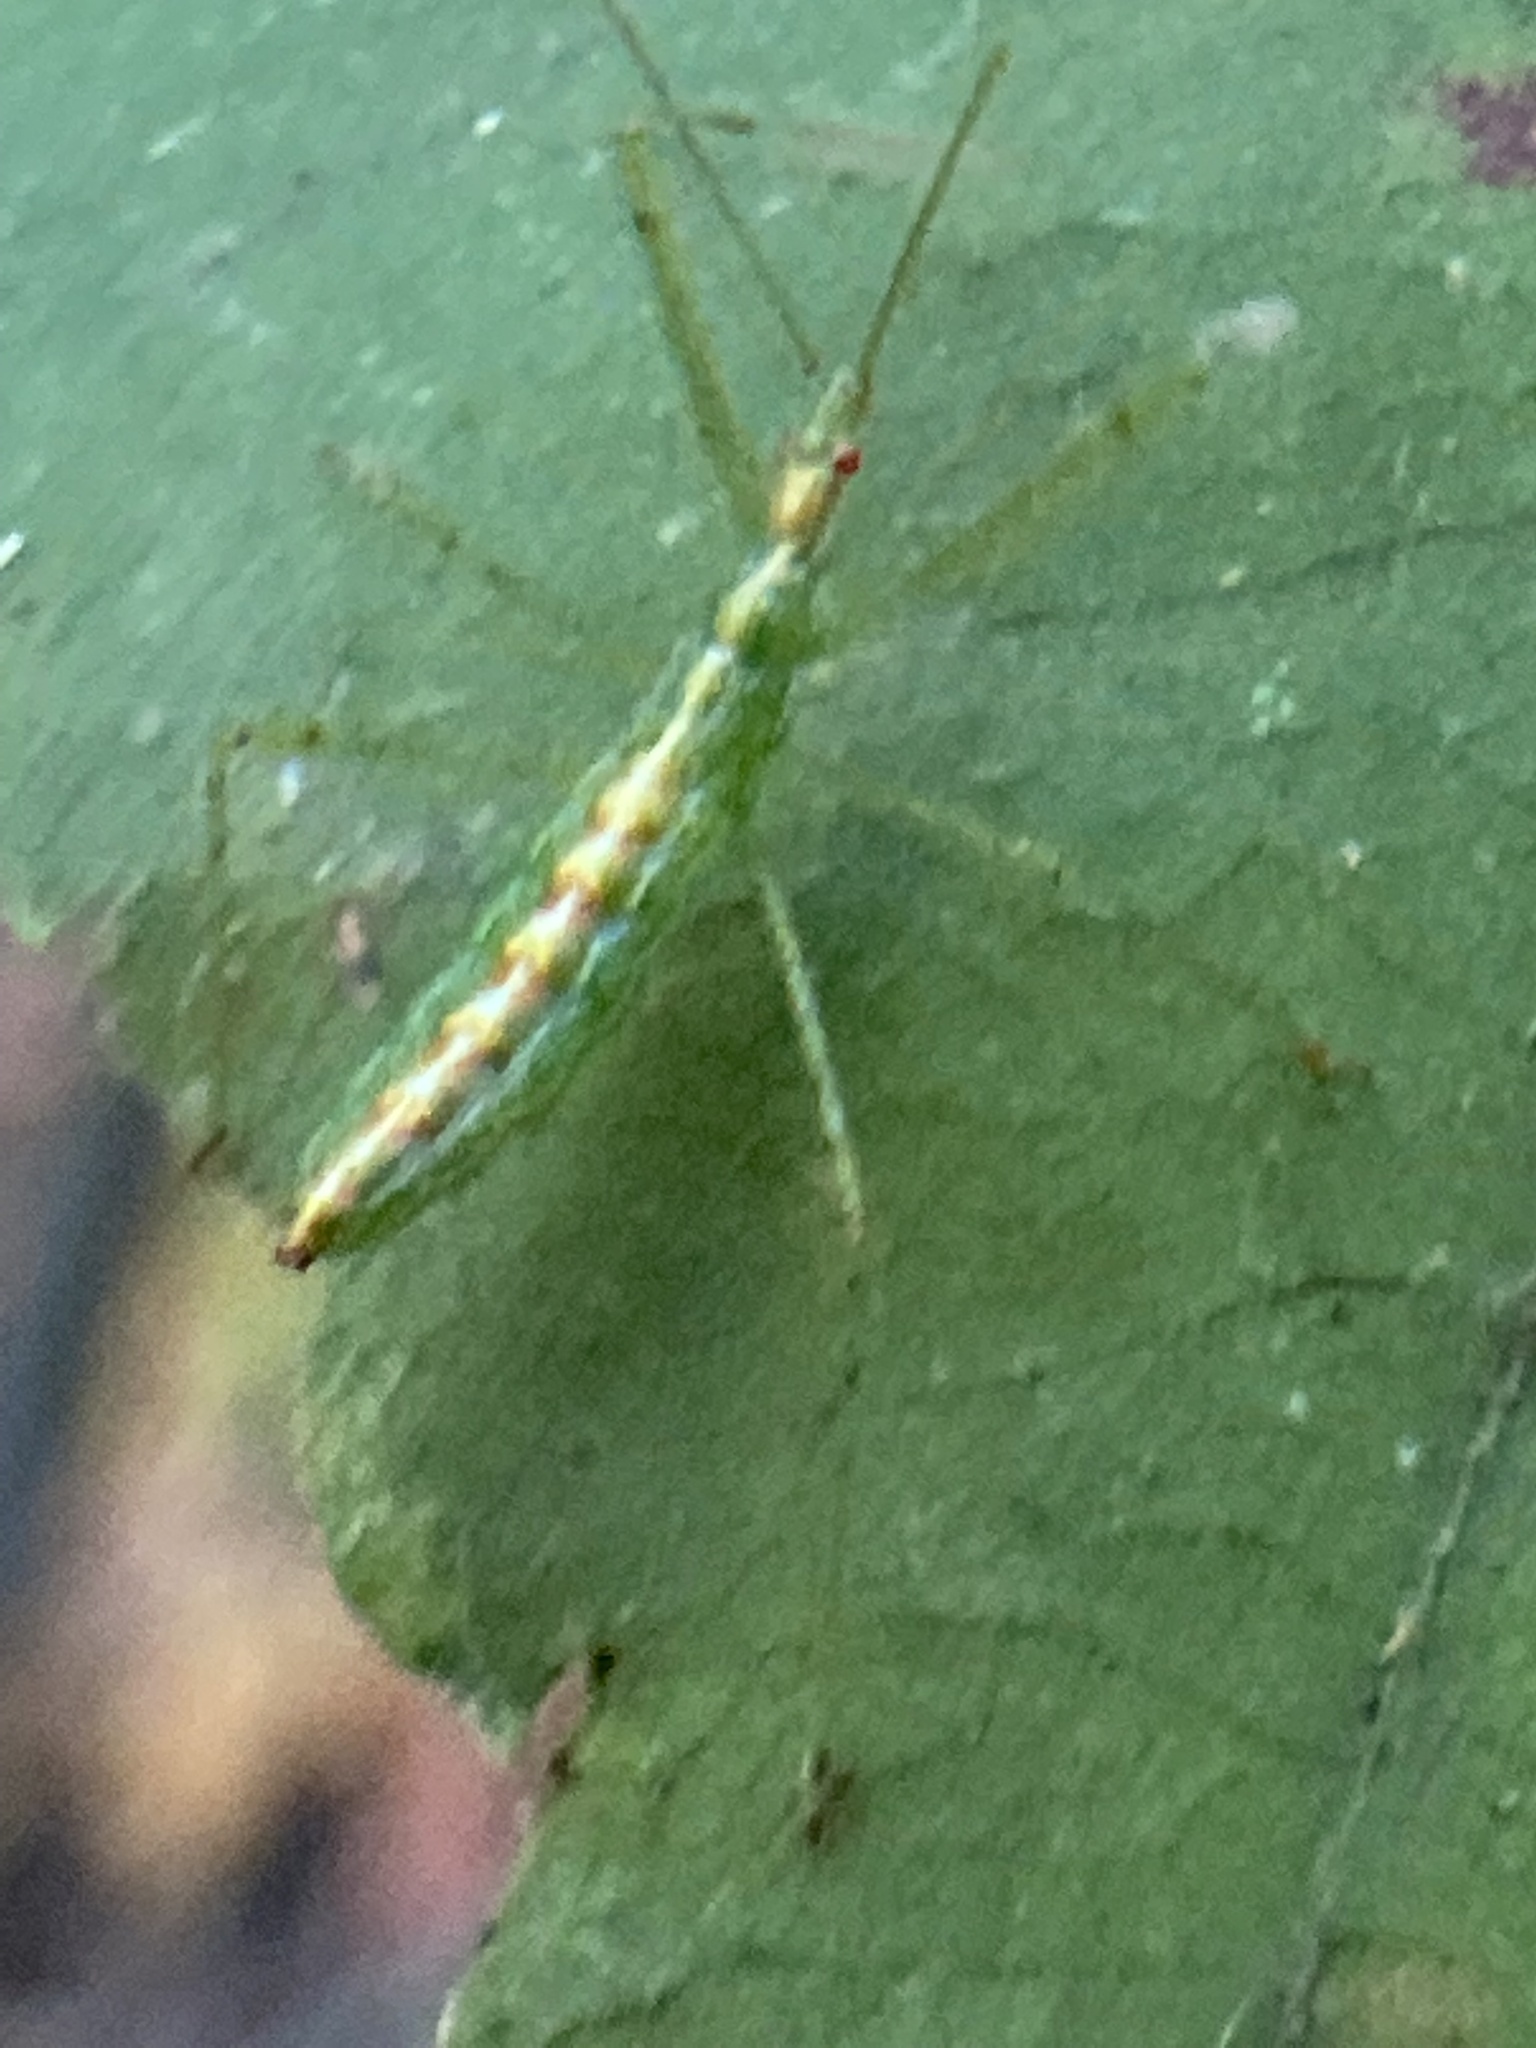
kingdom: Animalia
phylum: Arthropoda
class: Insecta
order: Hemiptera
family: Reduviidae
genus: Zelus
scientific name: Zelus luridus
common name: Pale green assassin bug
